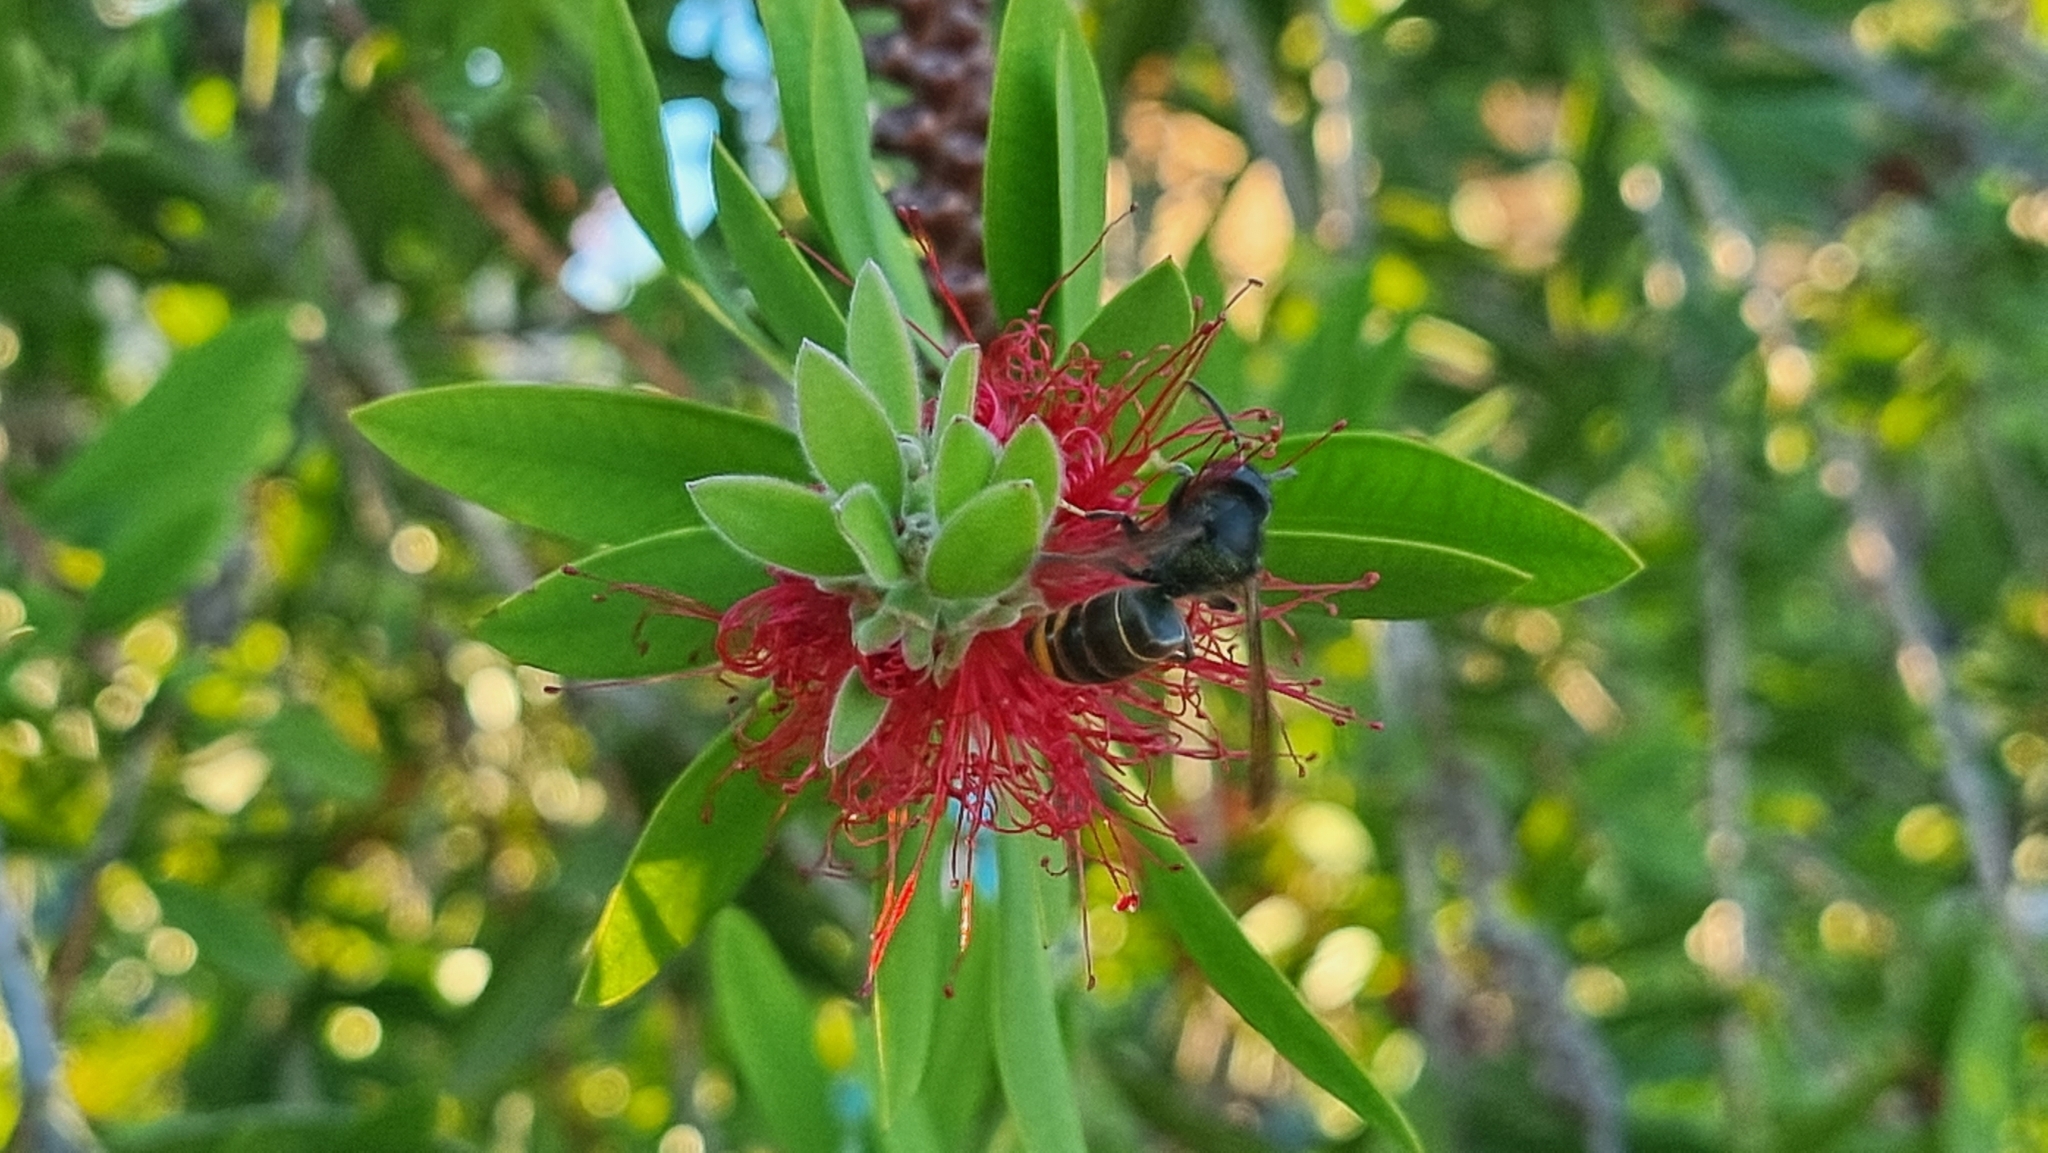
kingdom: Animalia
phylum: Arthropoda
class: Insecta
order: Hymenoptera
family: Vespidae
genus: Vespa
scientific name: Vespa velutina
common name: Asian hornet
